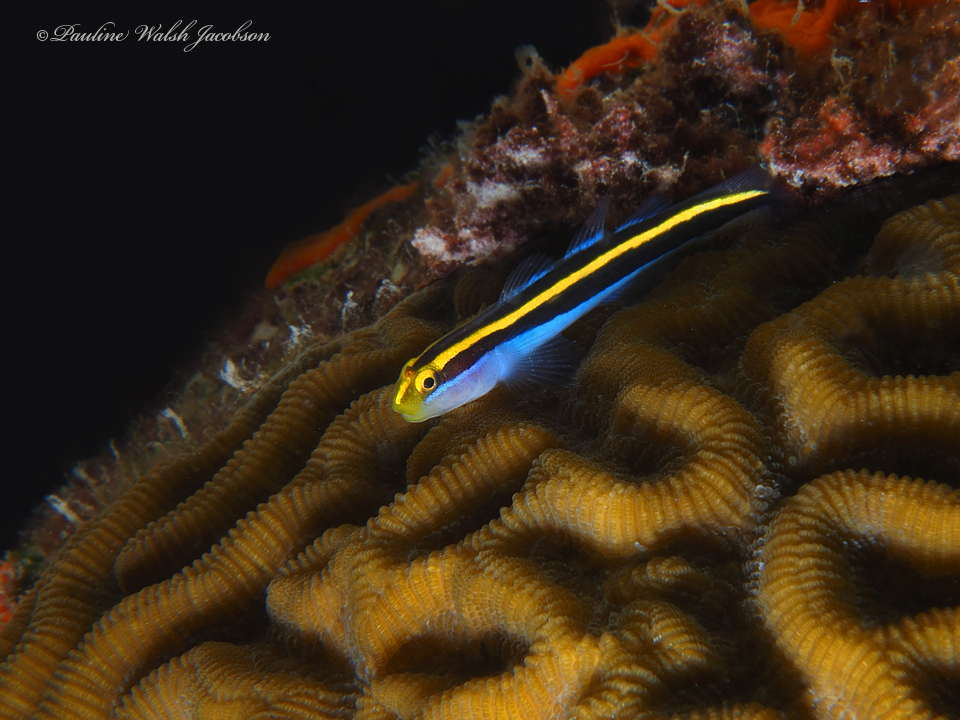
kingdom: Animalia
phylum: Chordata
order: Perciformes
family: Gobiidae
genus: Elacatinus
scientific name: Elacatinus randalli
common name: Yellownose goby
